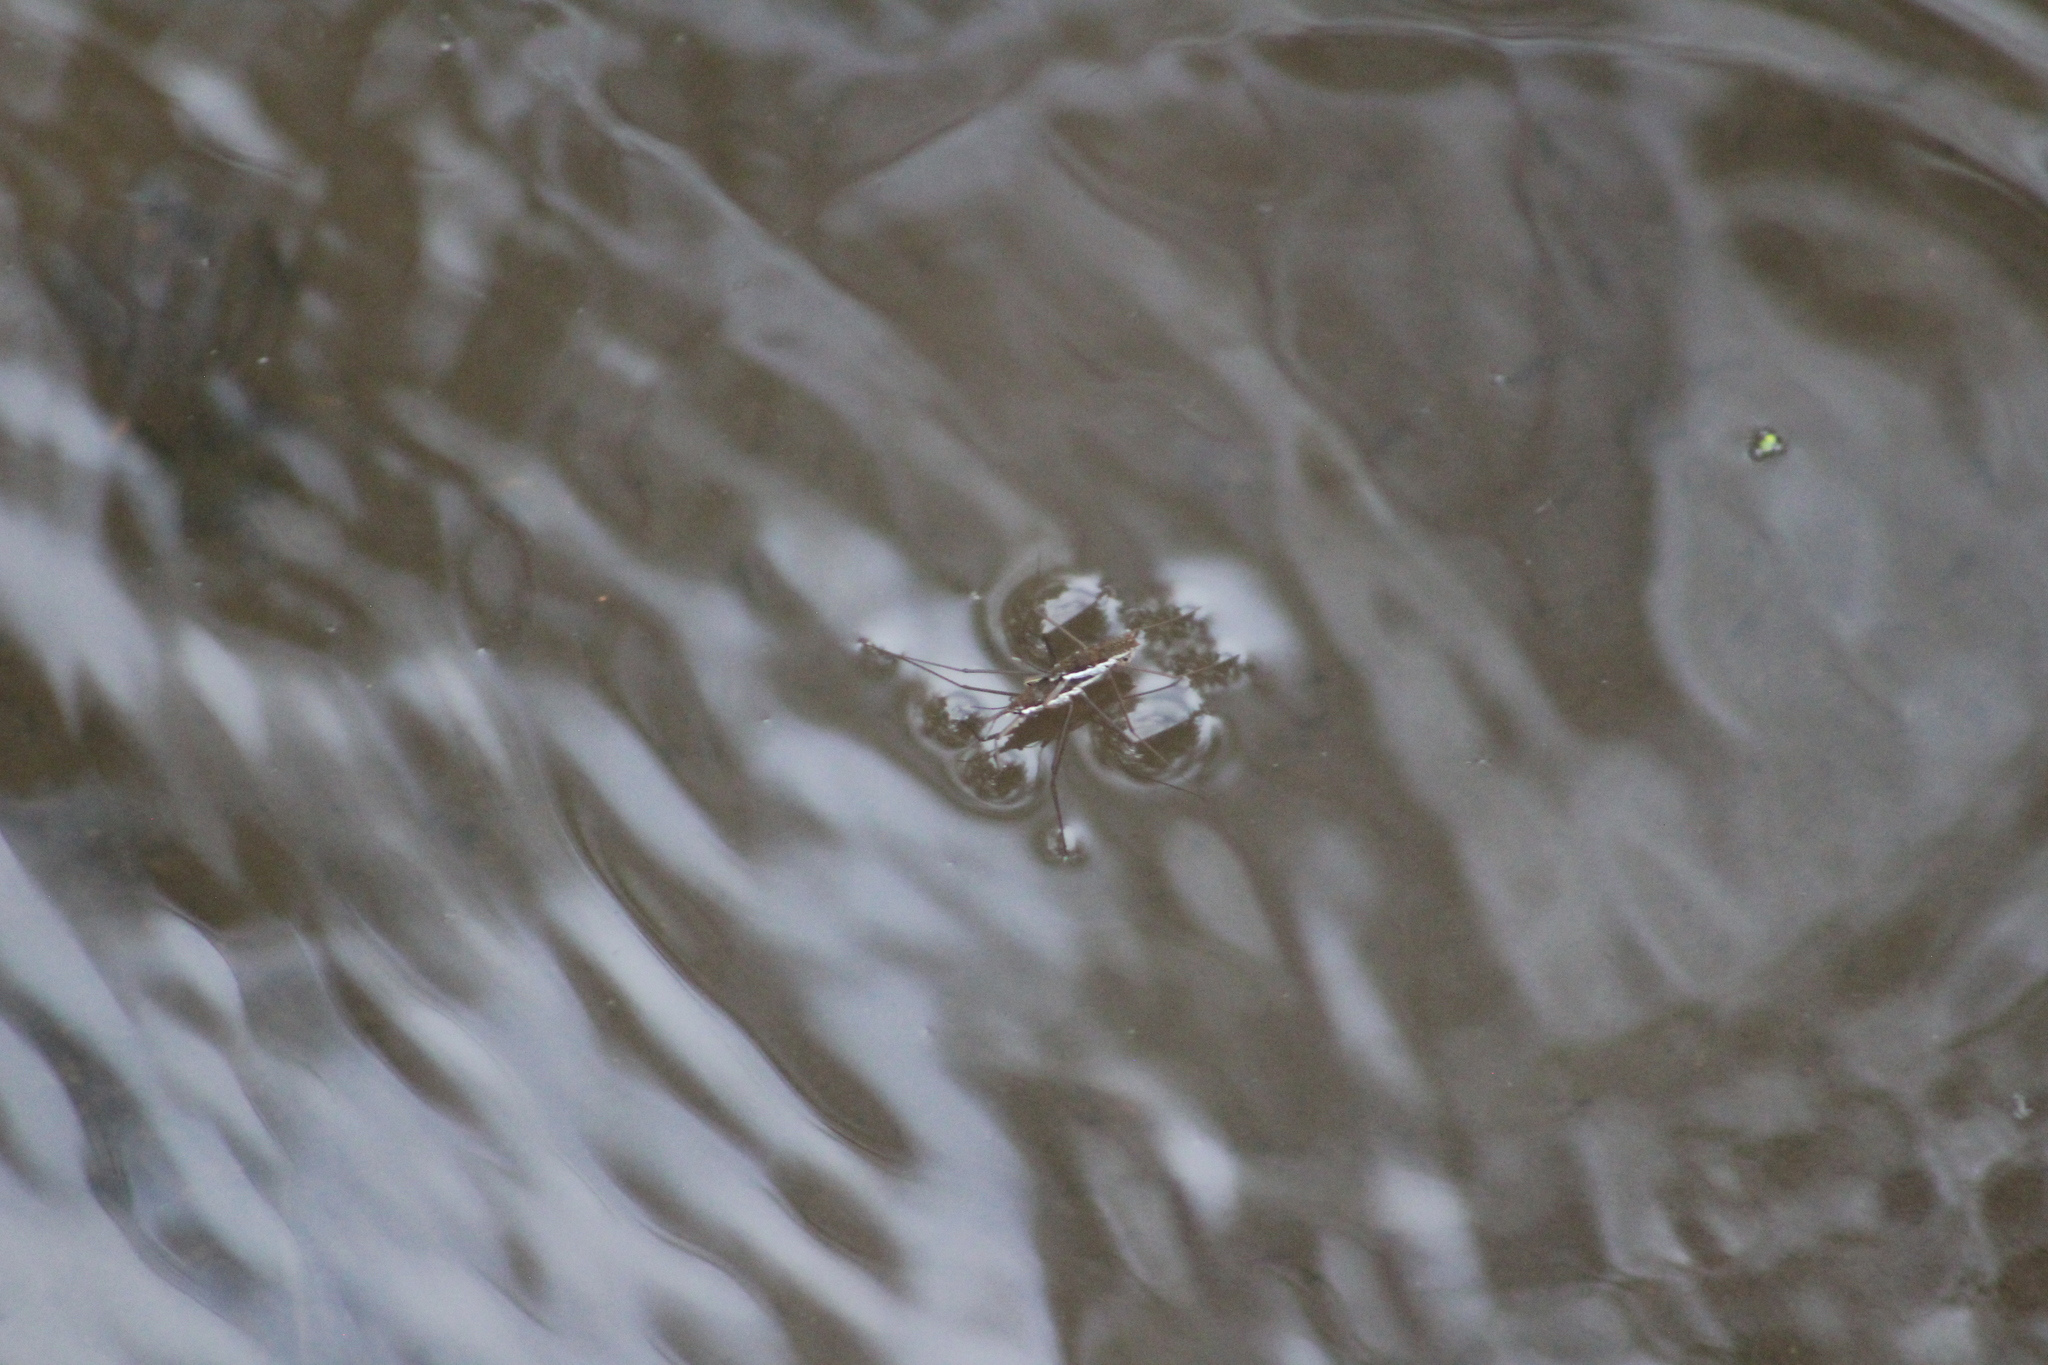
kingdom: Animalia
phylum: Arthropoda
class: Insecta
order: Hemiptera
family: Gerridae
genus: Aquarius
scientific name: Aquarius remigis
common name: Common water strider
